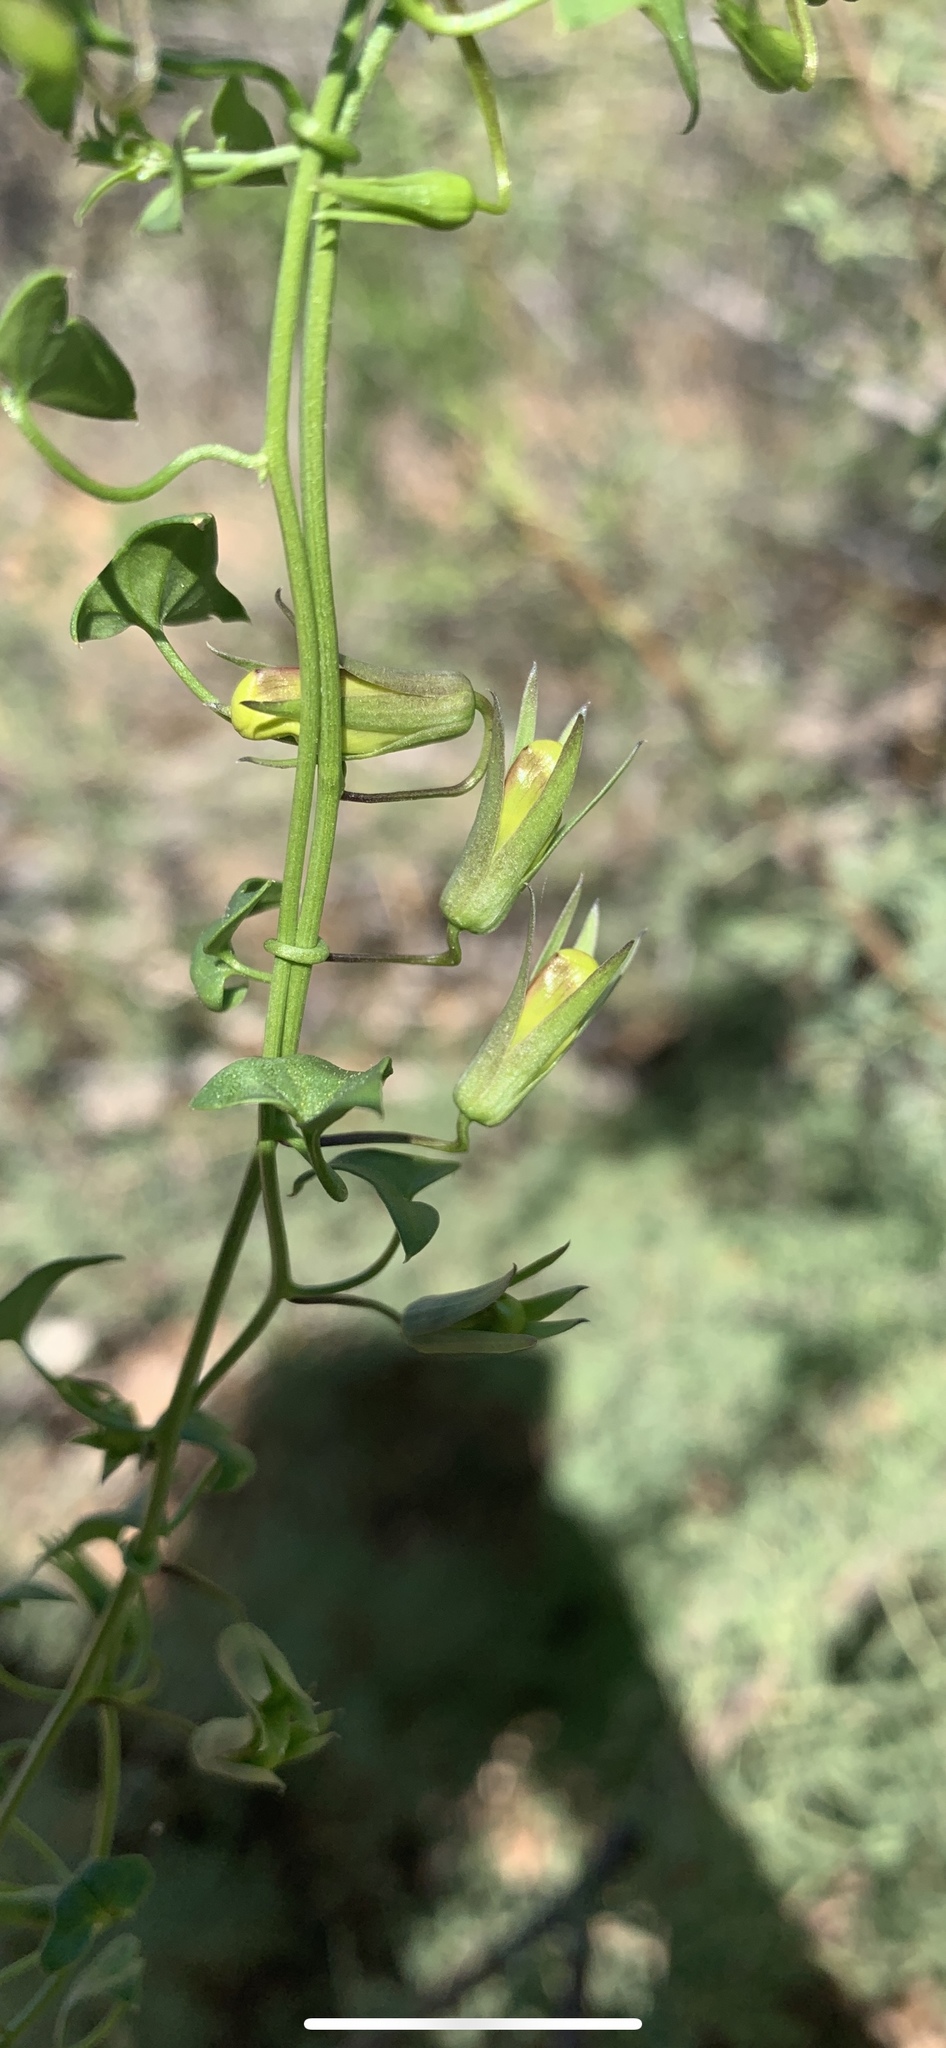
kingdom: Plantae
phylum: Tracheophyta
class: Magnoliopsida
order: Lamiales
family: Plantaginaceae
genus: Maurandella
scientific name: Maurandella antirrhiniflora
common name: Violet twining-snapdragon
